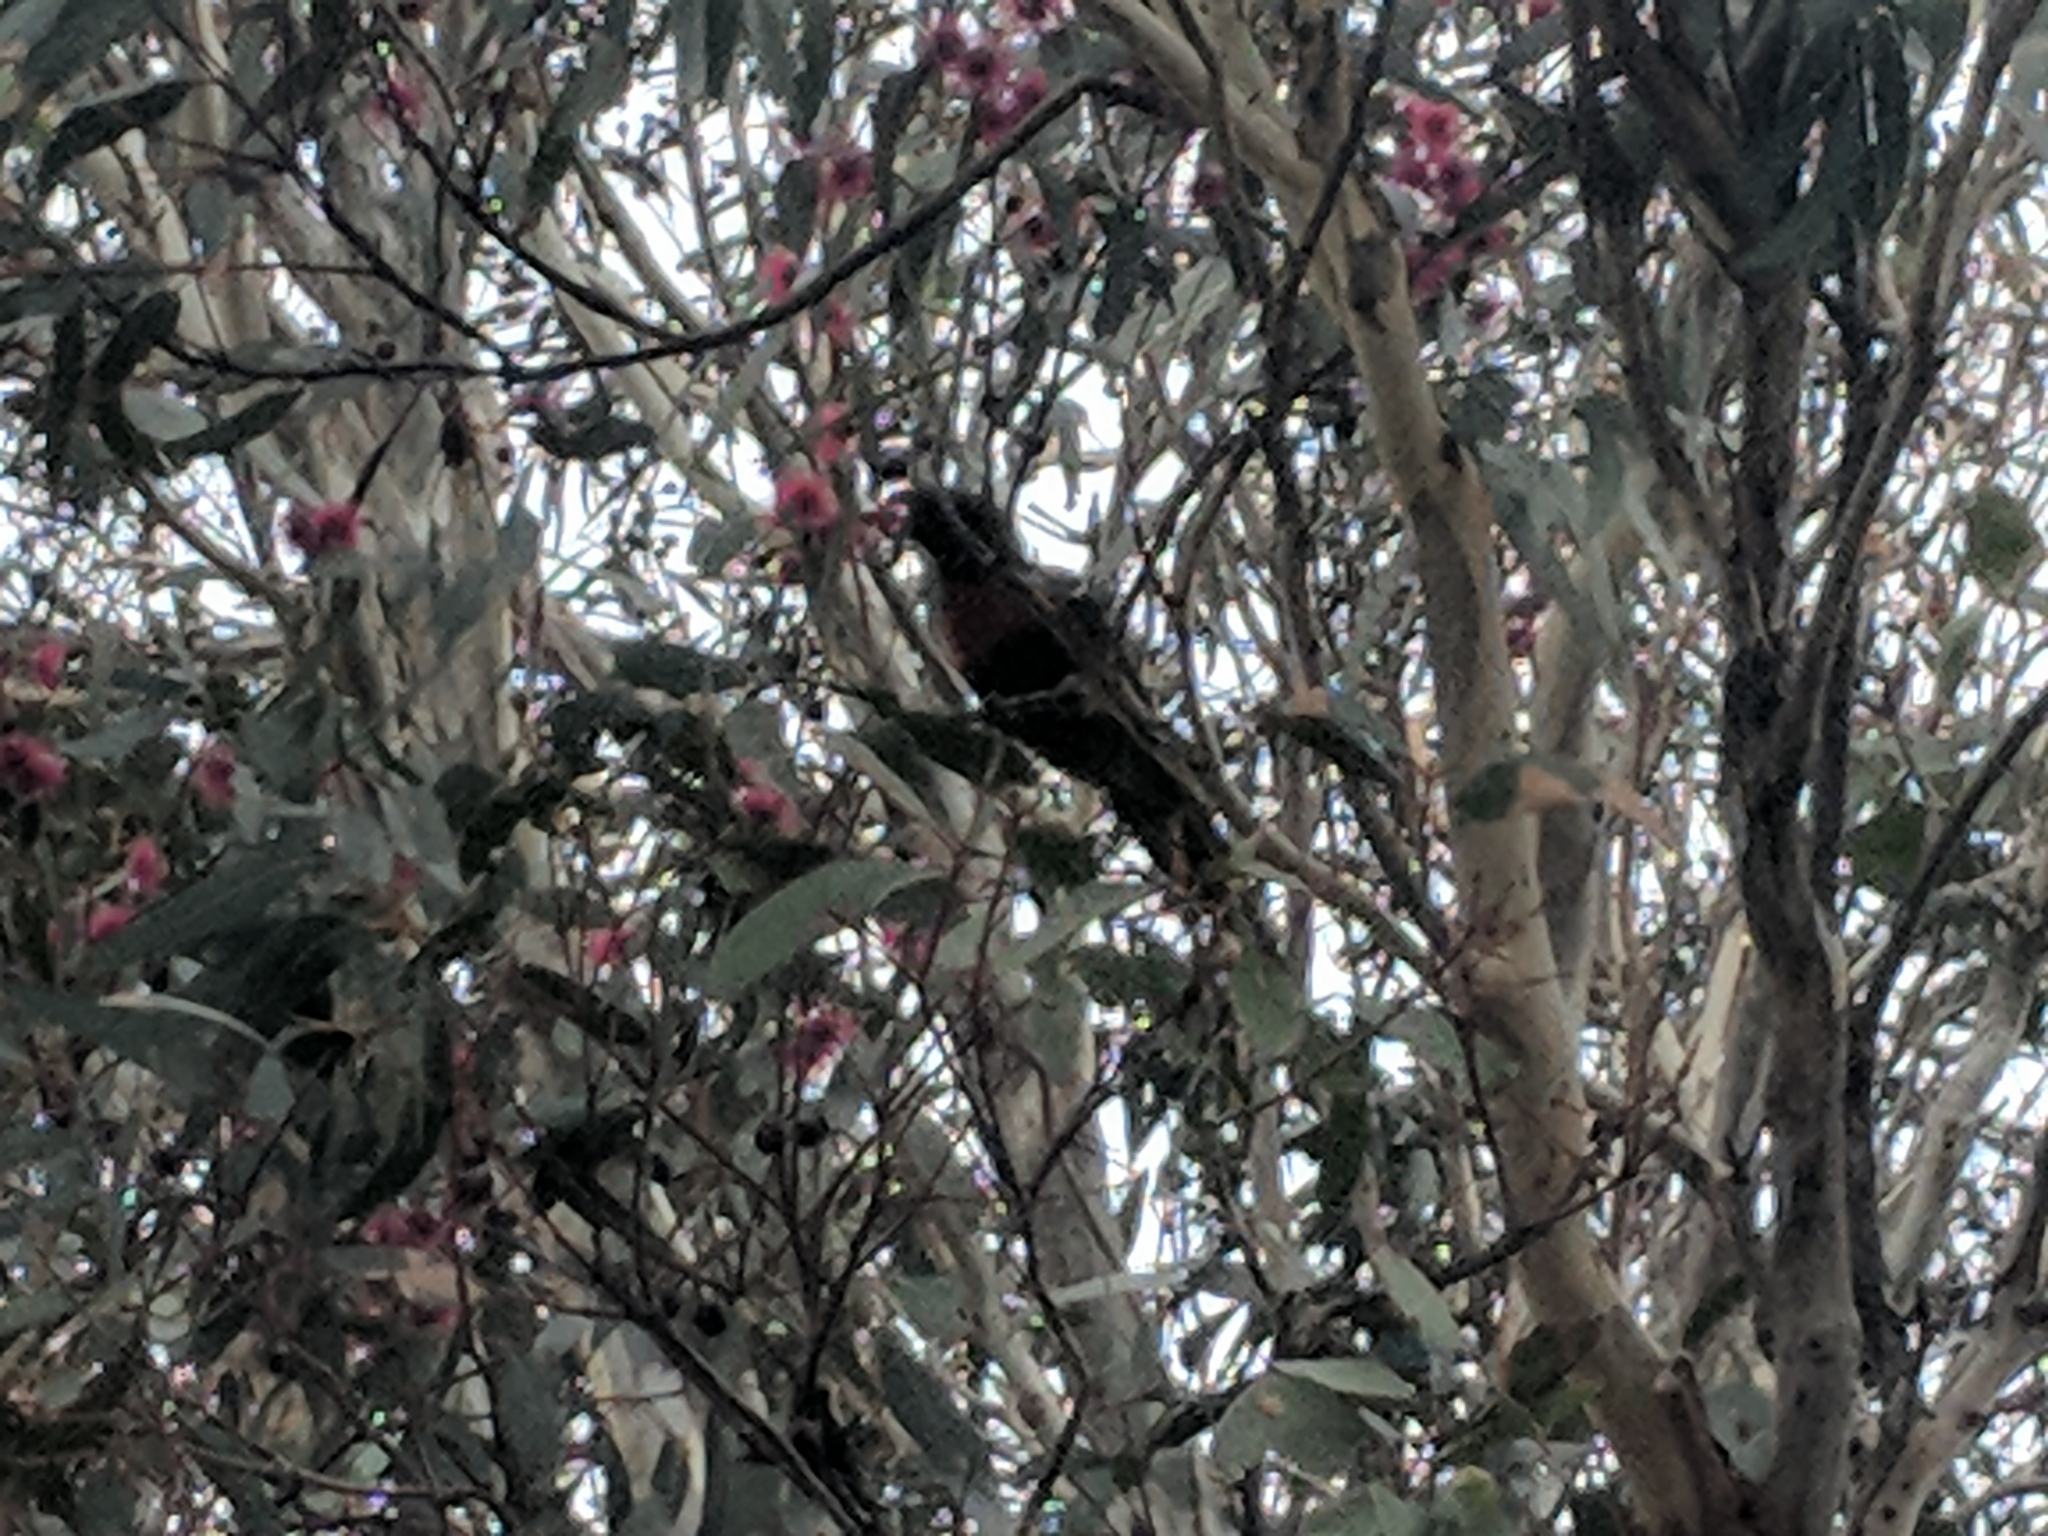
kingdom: Animalia
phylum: Chordata
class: Aves
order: Psittaciformes
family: Psittacidae
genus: Trichoglossus
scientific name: Trichoglossus haematodus
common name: Coconut lorikeet
